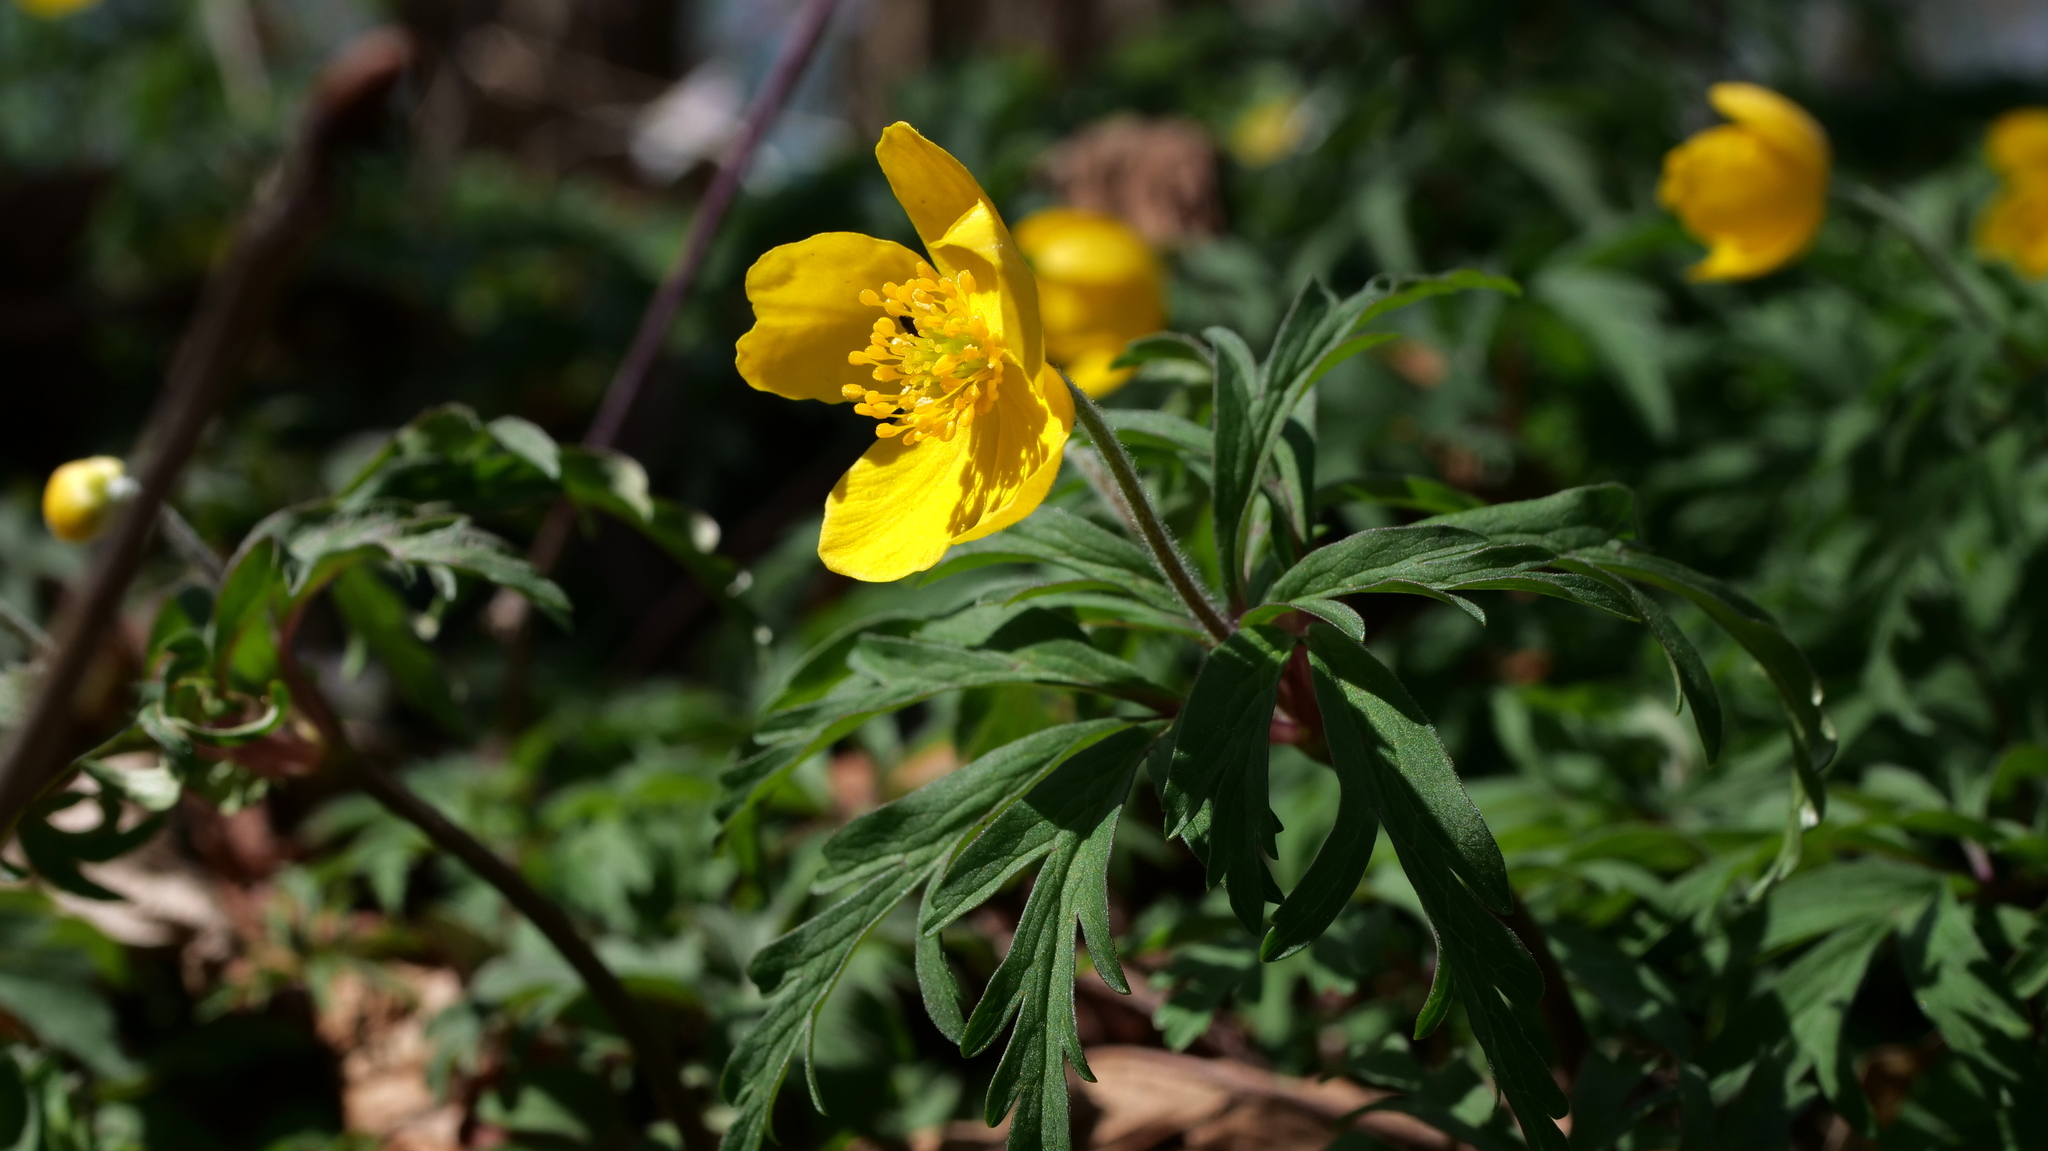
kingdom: Plantae
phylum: Tracheophyta
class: Magnoliopsida
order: Ranunculales
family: Ranunculaceae
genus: Anemone
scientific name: Anemone ranunculoides
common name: Yellow anemone
